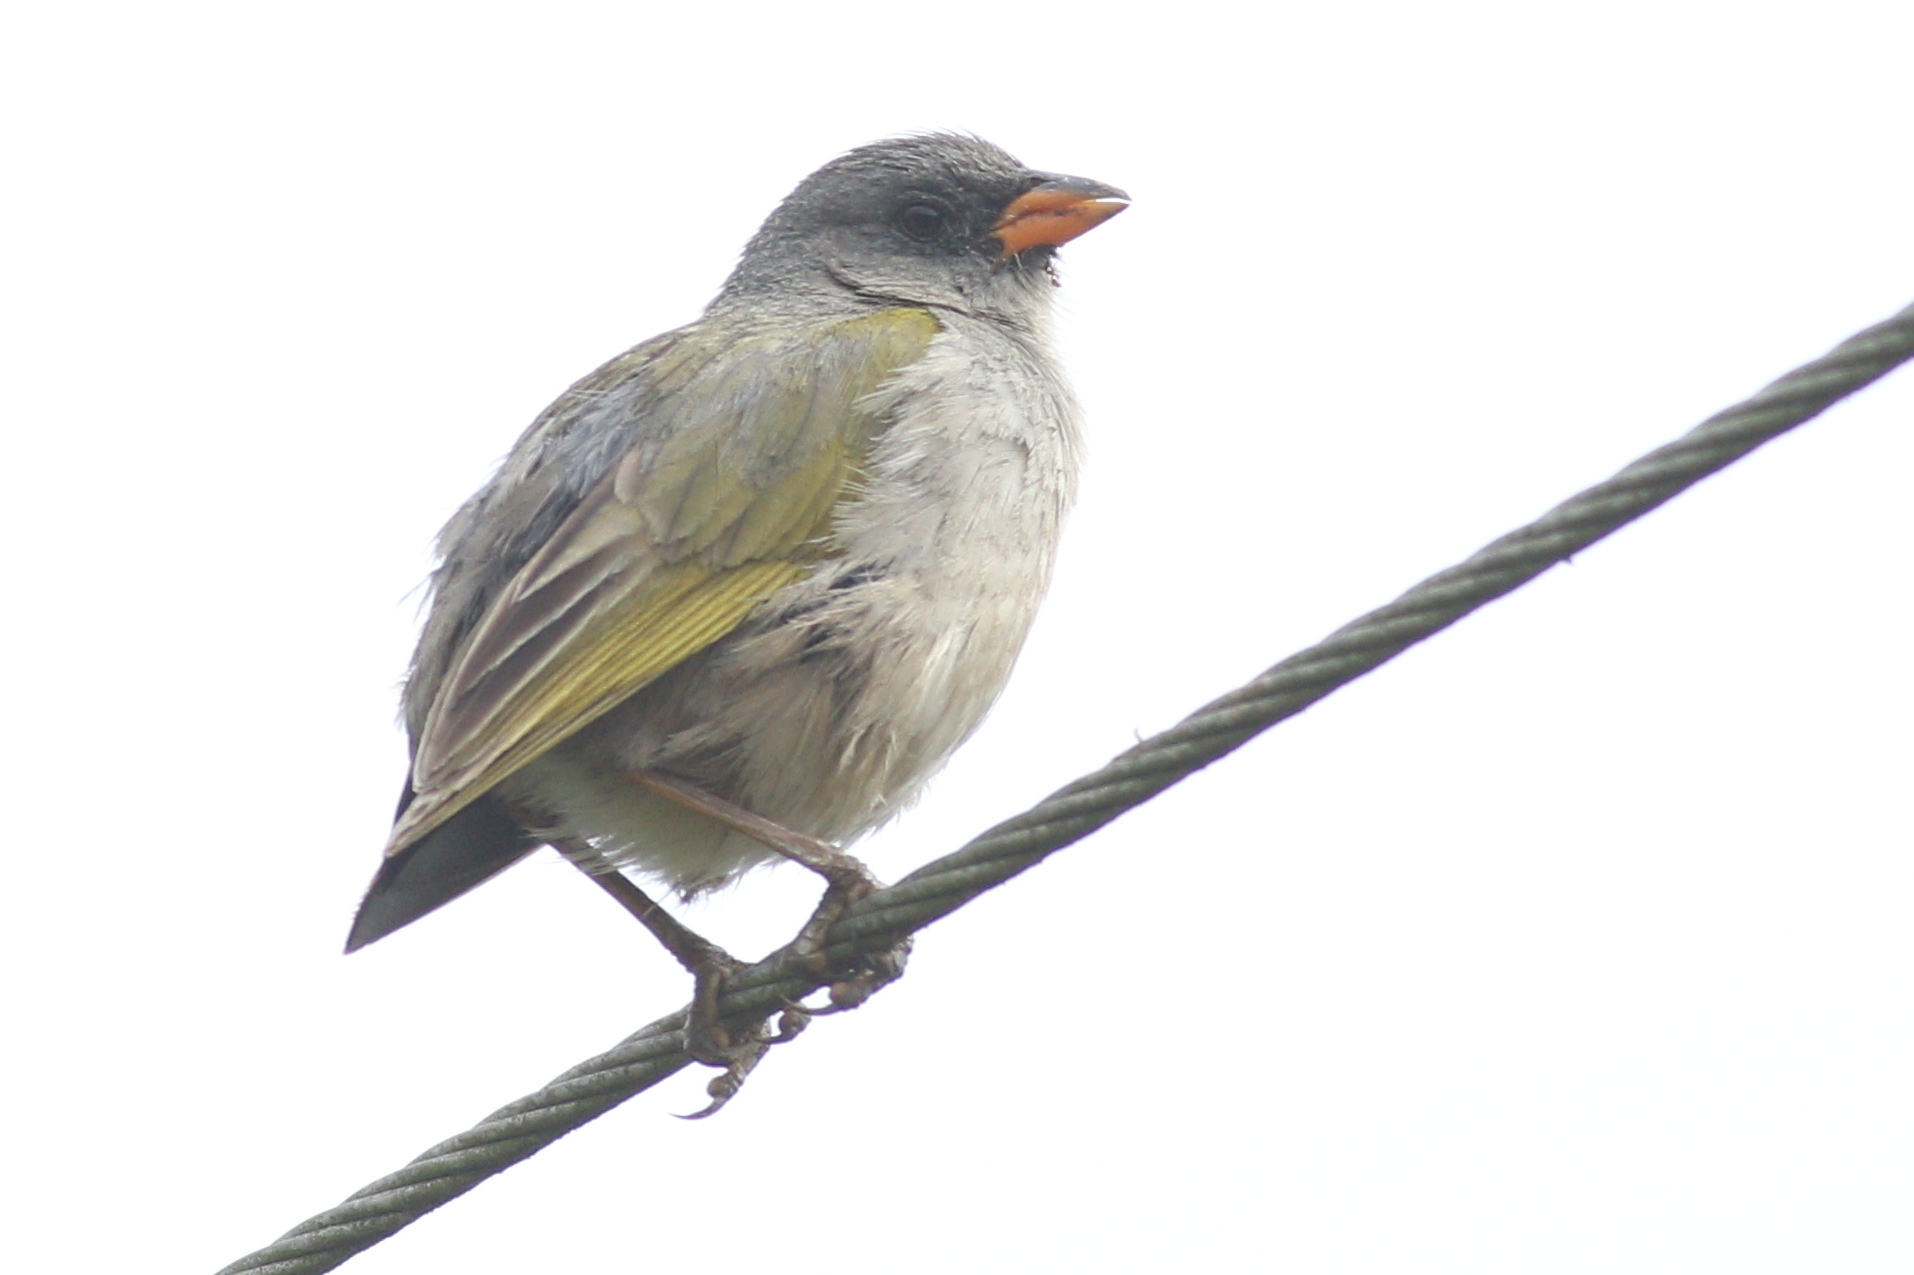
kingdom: Animalia
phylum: Chordata
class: Aves
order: Passeriformes
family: Thraupidae
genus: Embernagra
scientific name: Embernagra platensis
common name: Pampa finch
